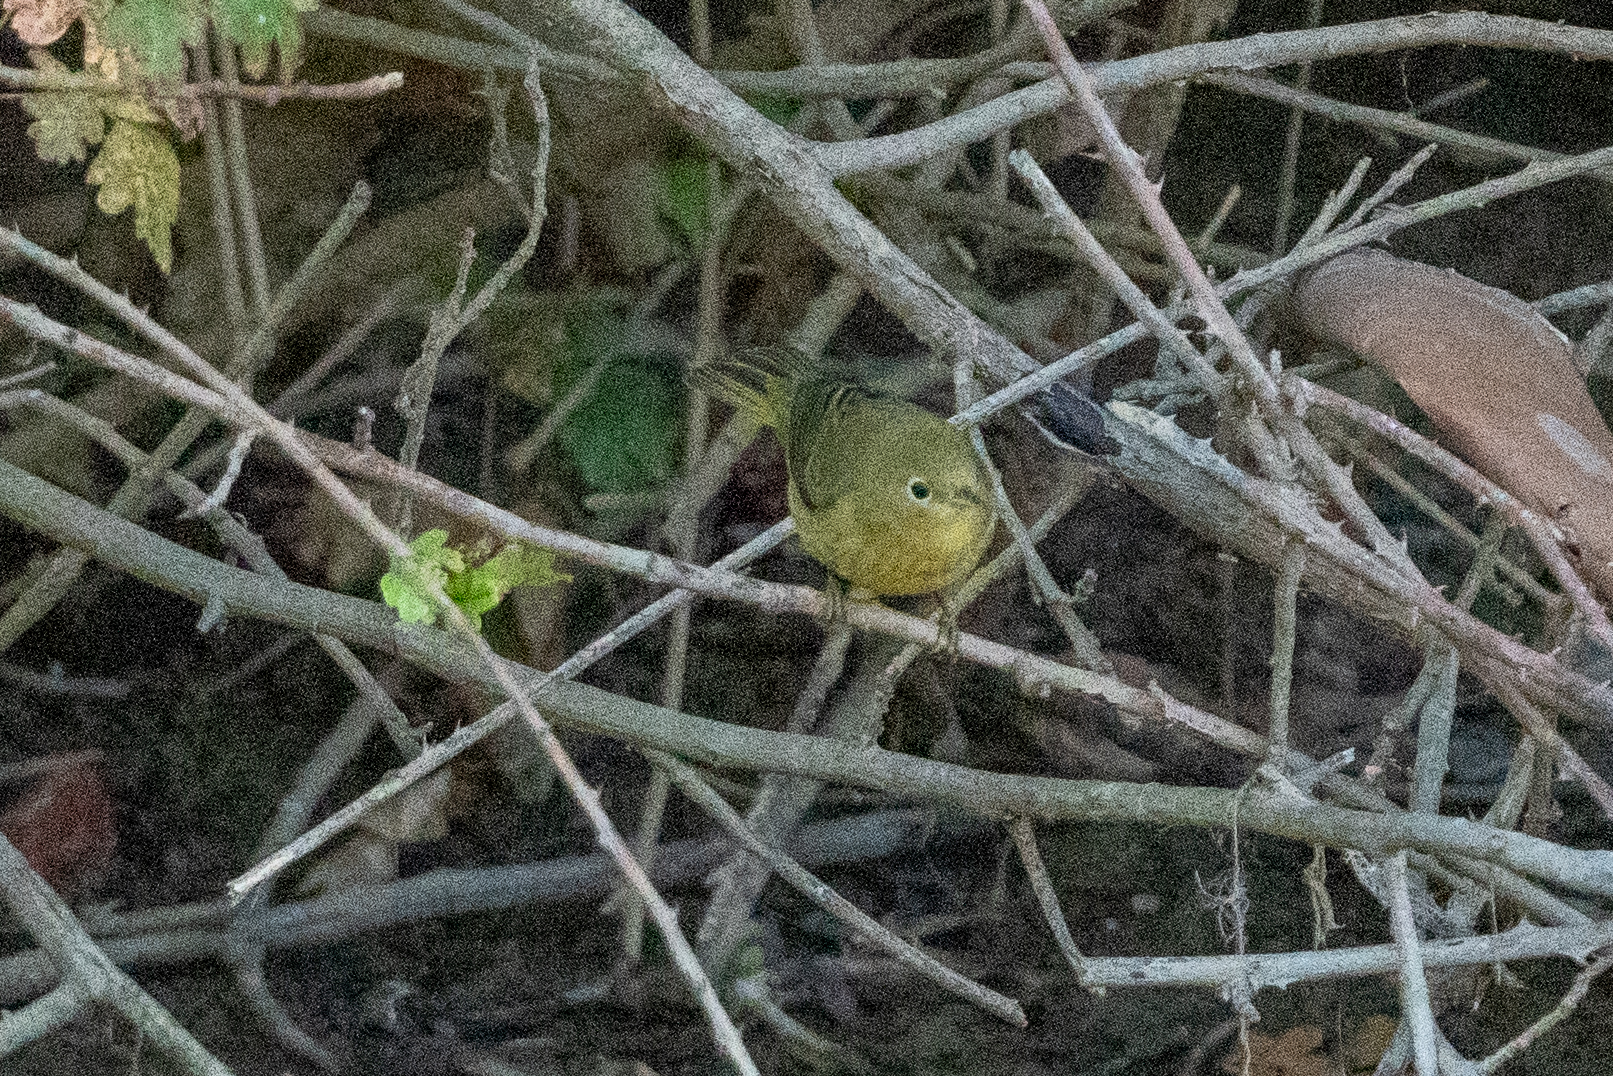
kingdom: Animalia
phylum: Chordata
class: Aves
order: Passeriformes
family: Parulidae
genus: Setophaga
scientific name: Setophaga petechia
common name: Yellow warbler
